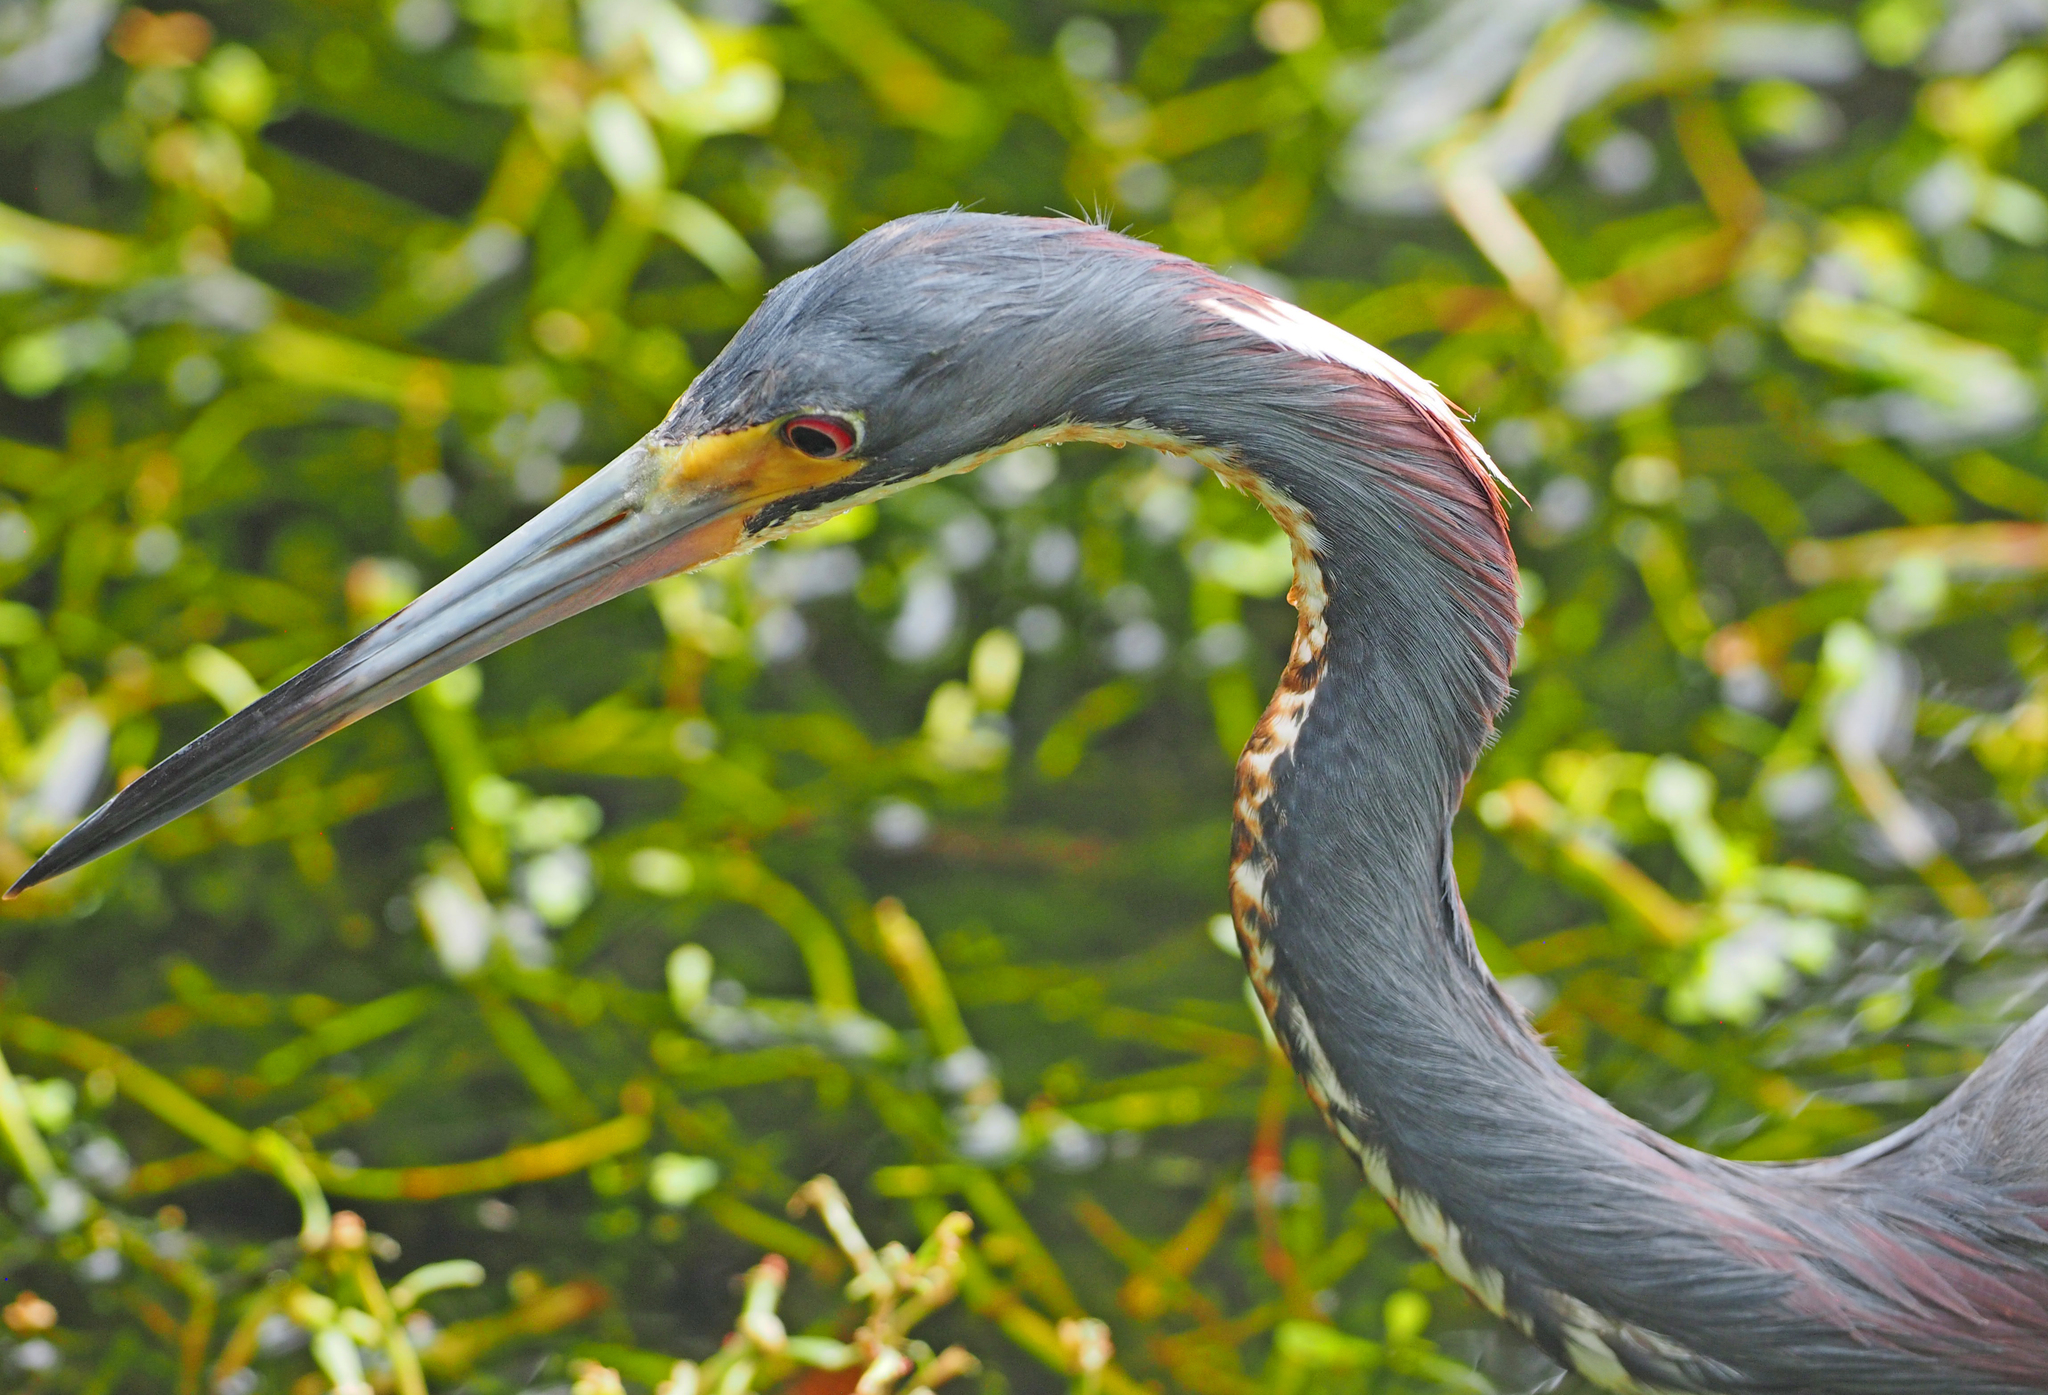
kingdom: Animalia
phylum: Chordata
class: Aves
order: Pelecaniformes
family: Ardeidae
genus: Egretta
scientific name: Egretta tricolor
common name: Tricolored heron
